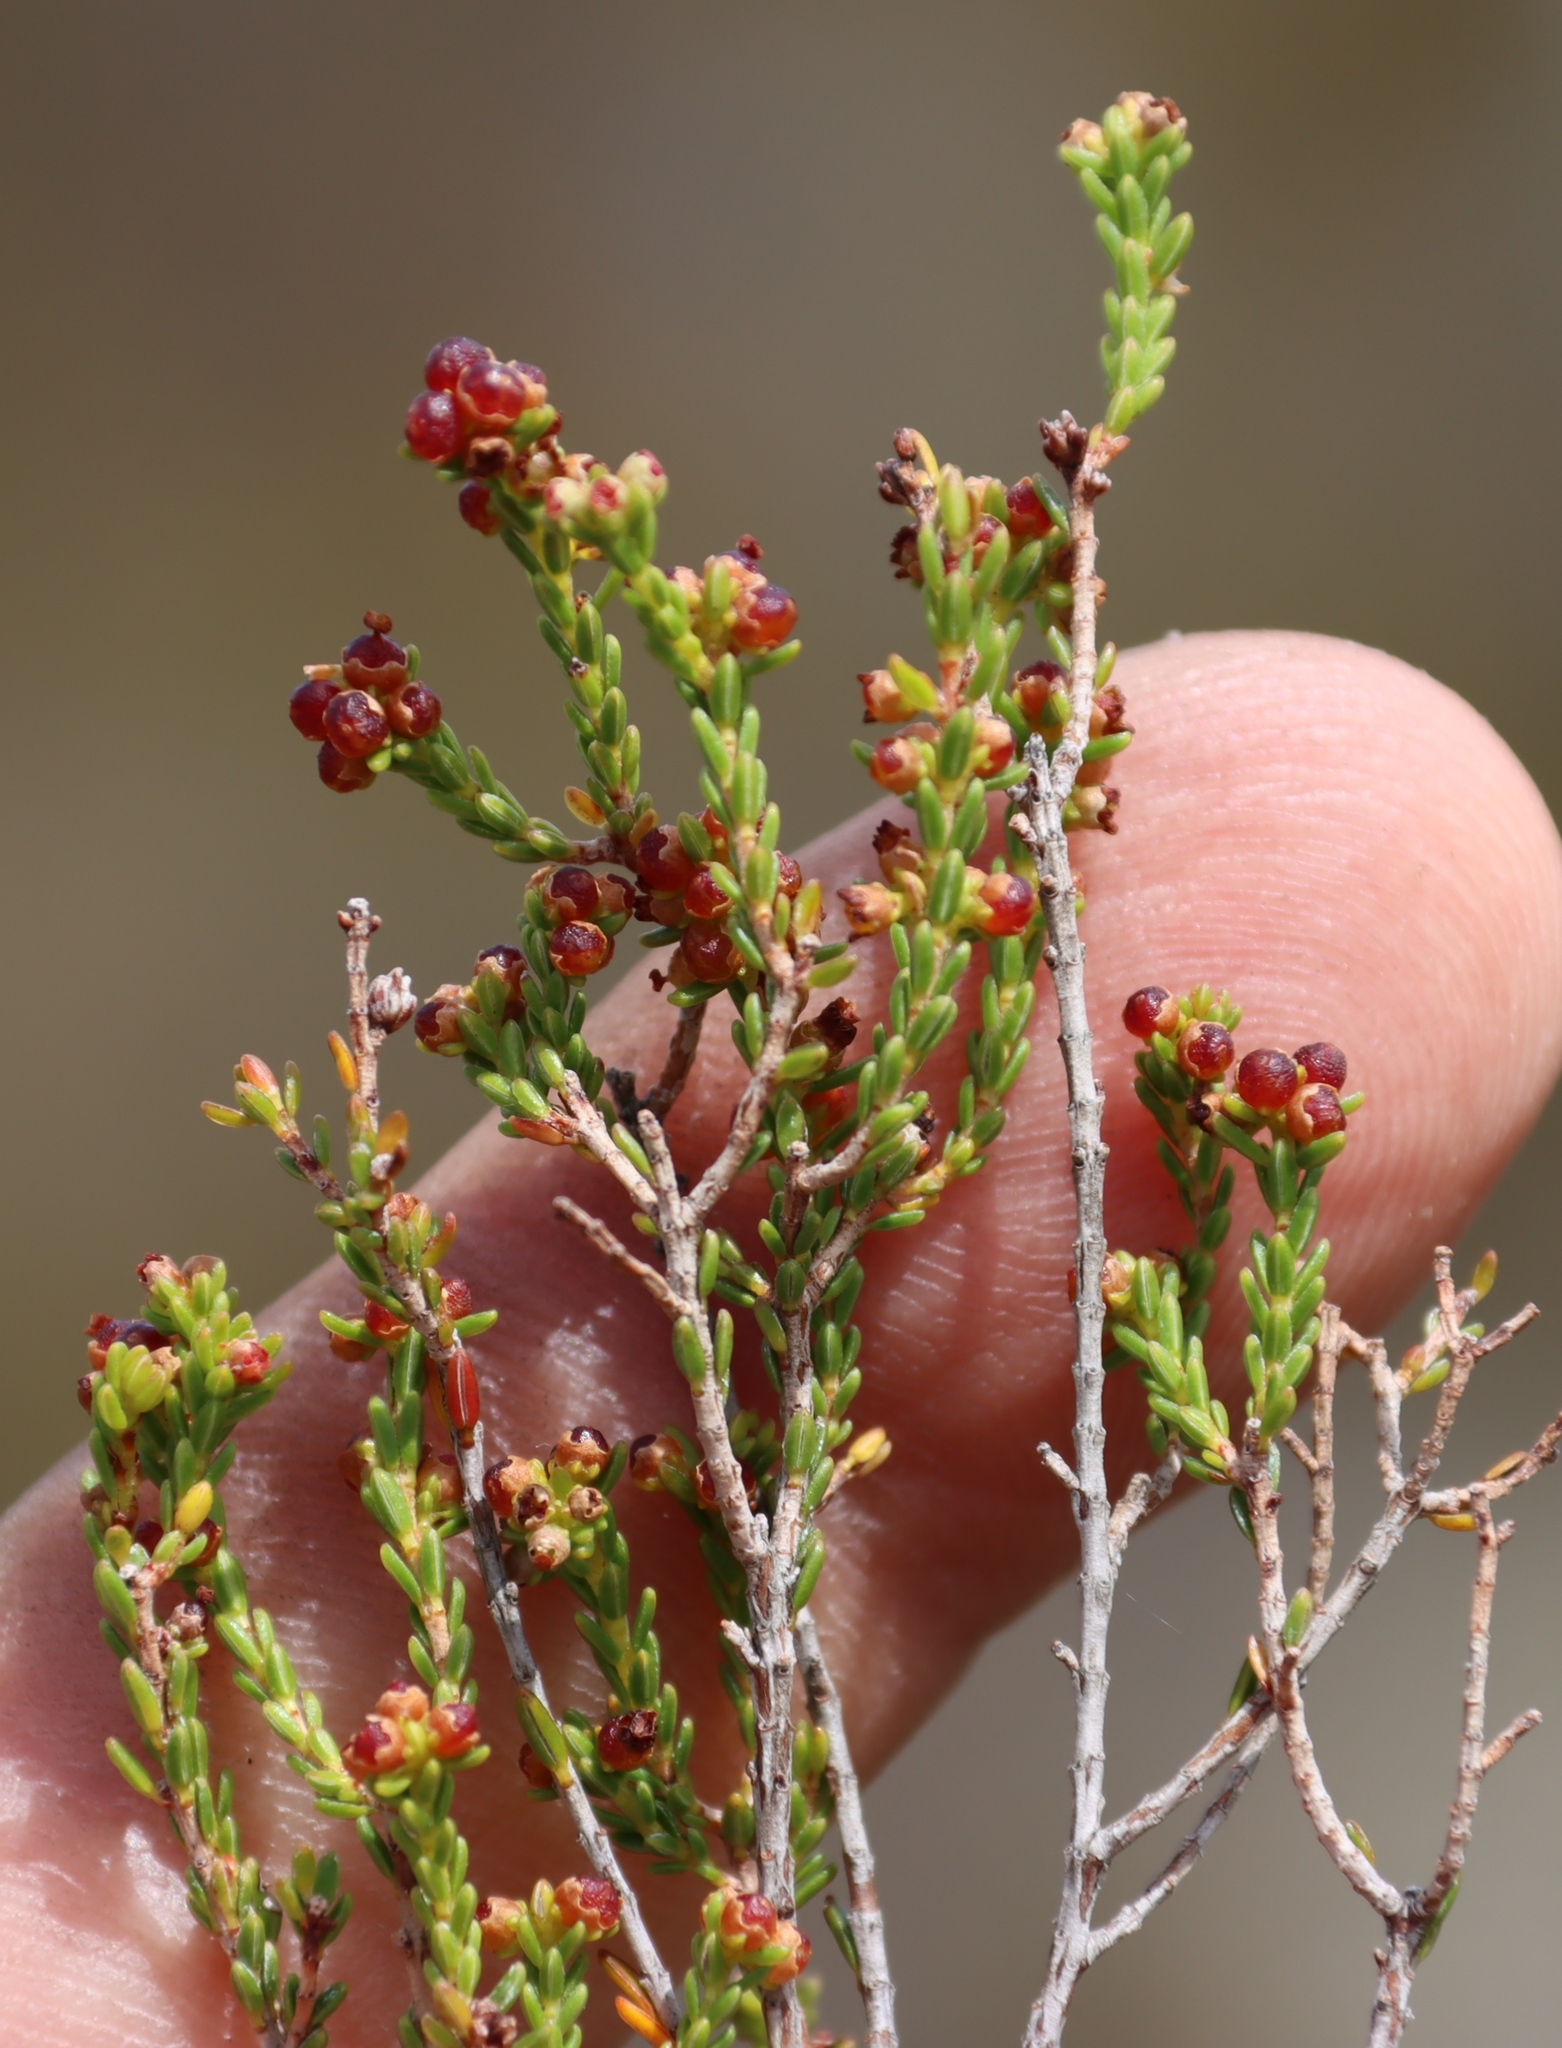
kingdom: Plantae
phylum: Tracheophyta
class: Magnoliopsida
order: Ericales
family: Ericaceae
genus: Erica
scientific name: Erica axillaris
